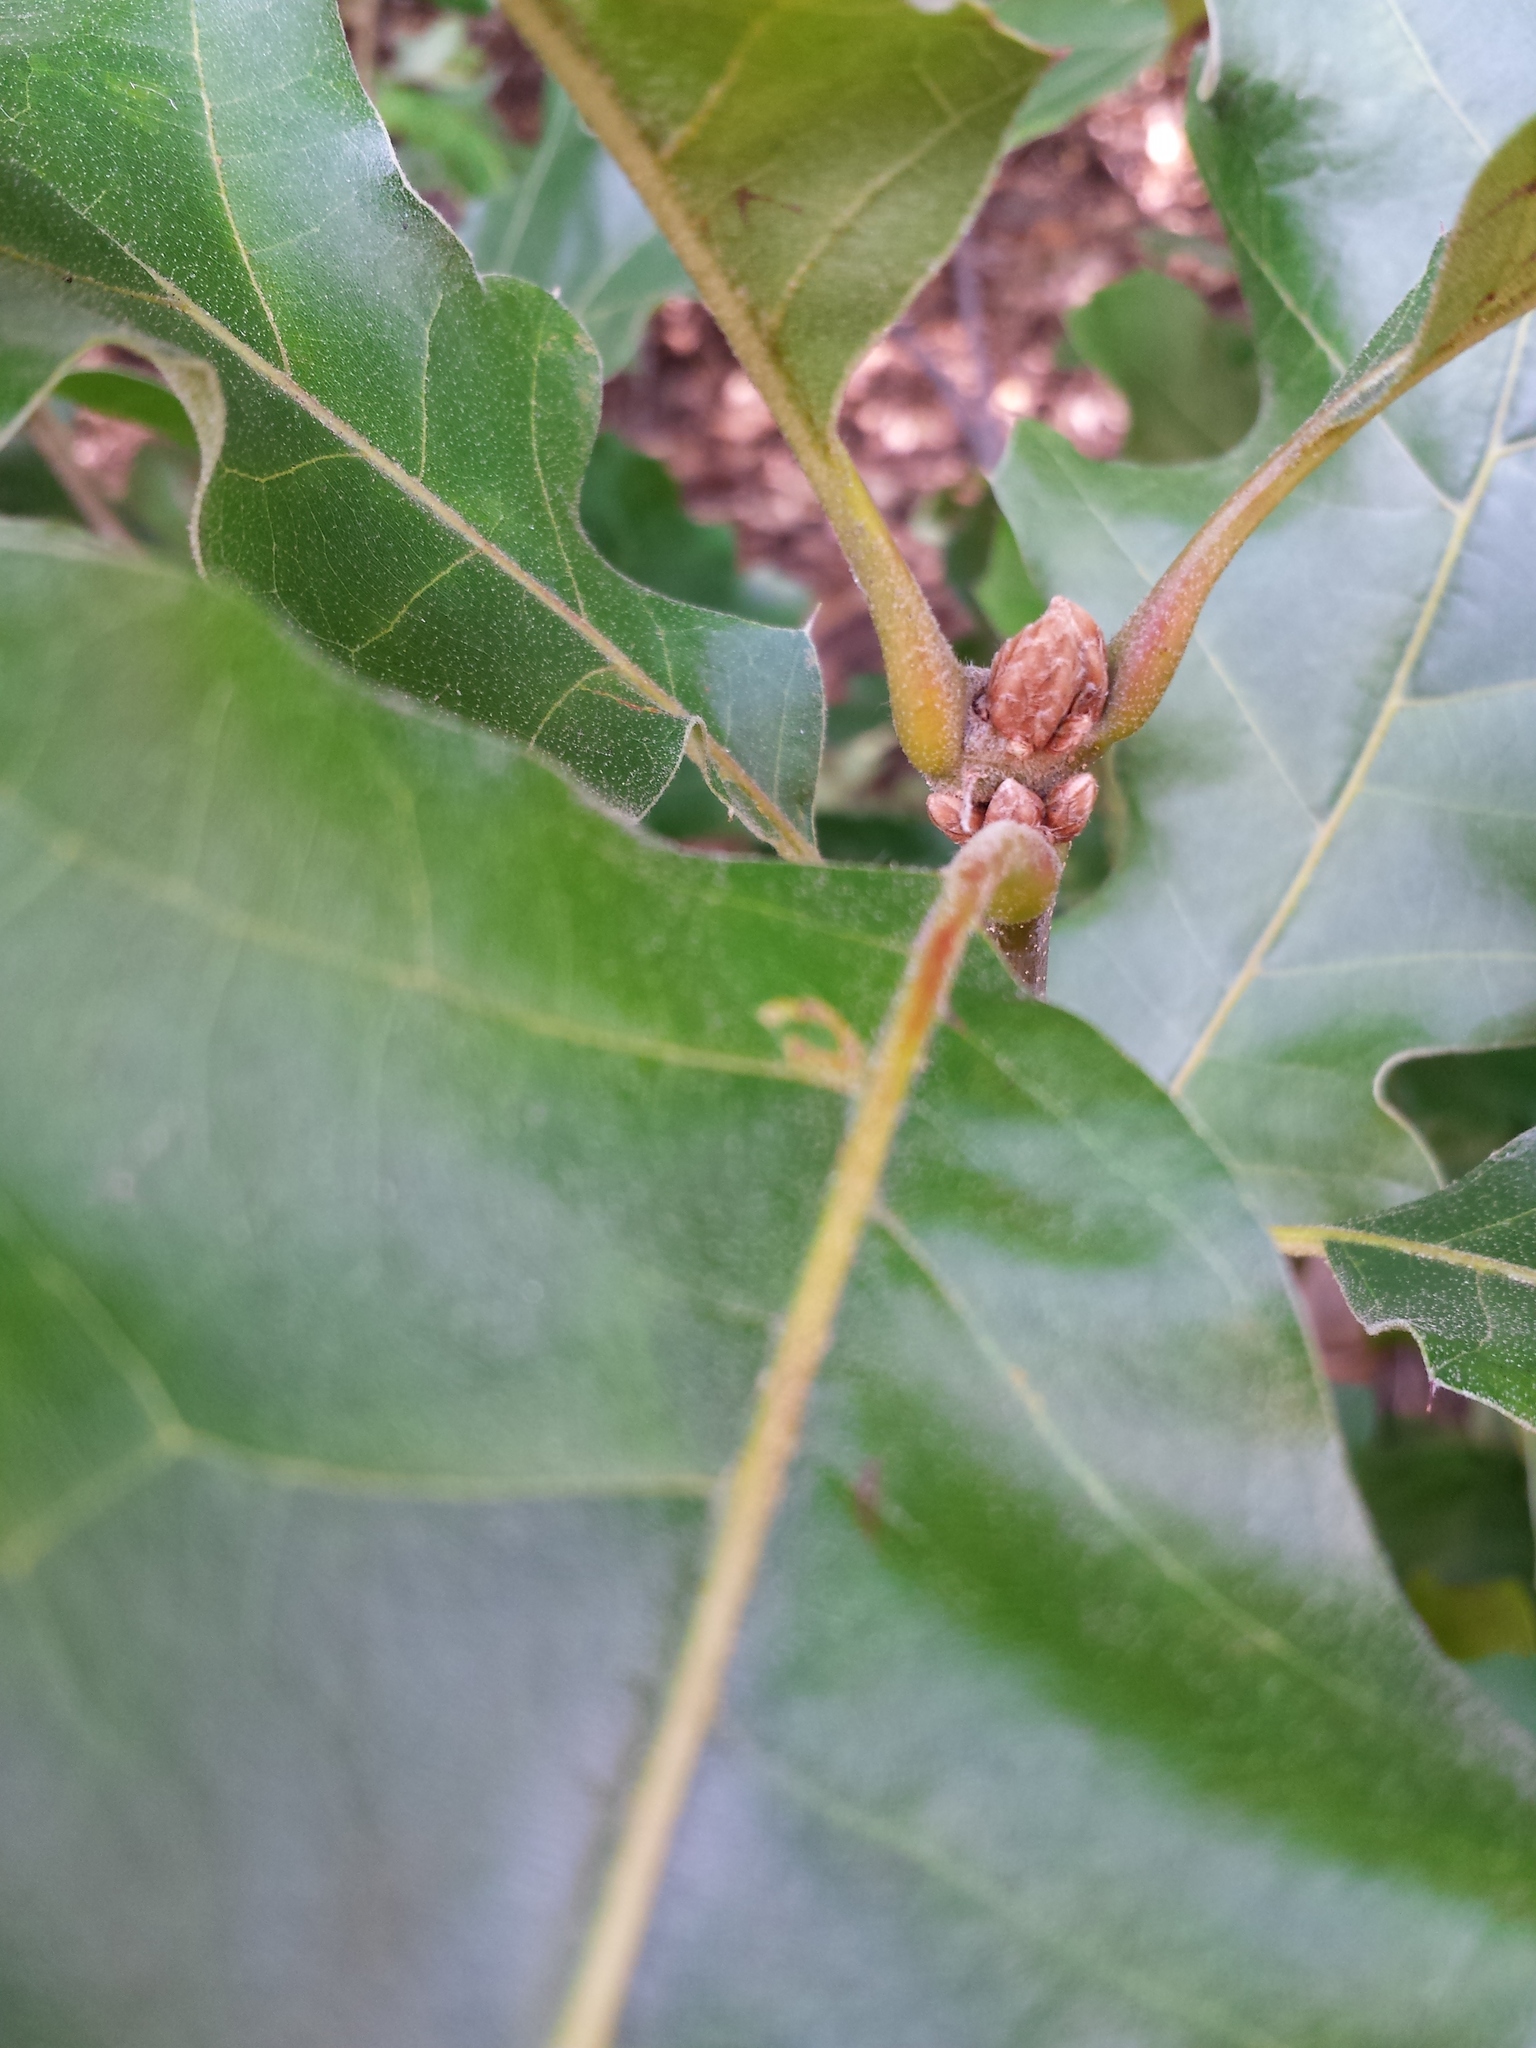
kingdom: Plantae
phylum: Tracheophyta
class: Magnoliopsida
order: Fagales
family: Fagaceae
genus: Quercus
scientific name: Quercus velutina
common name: Black oak
